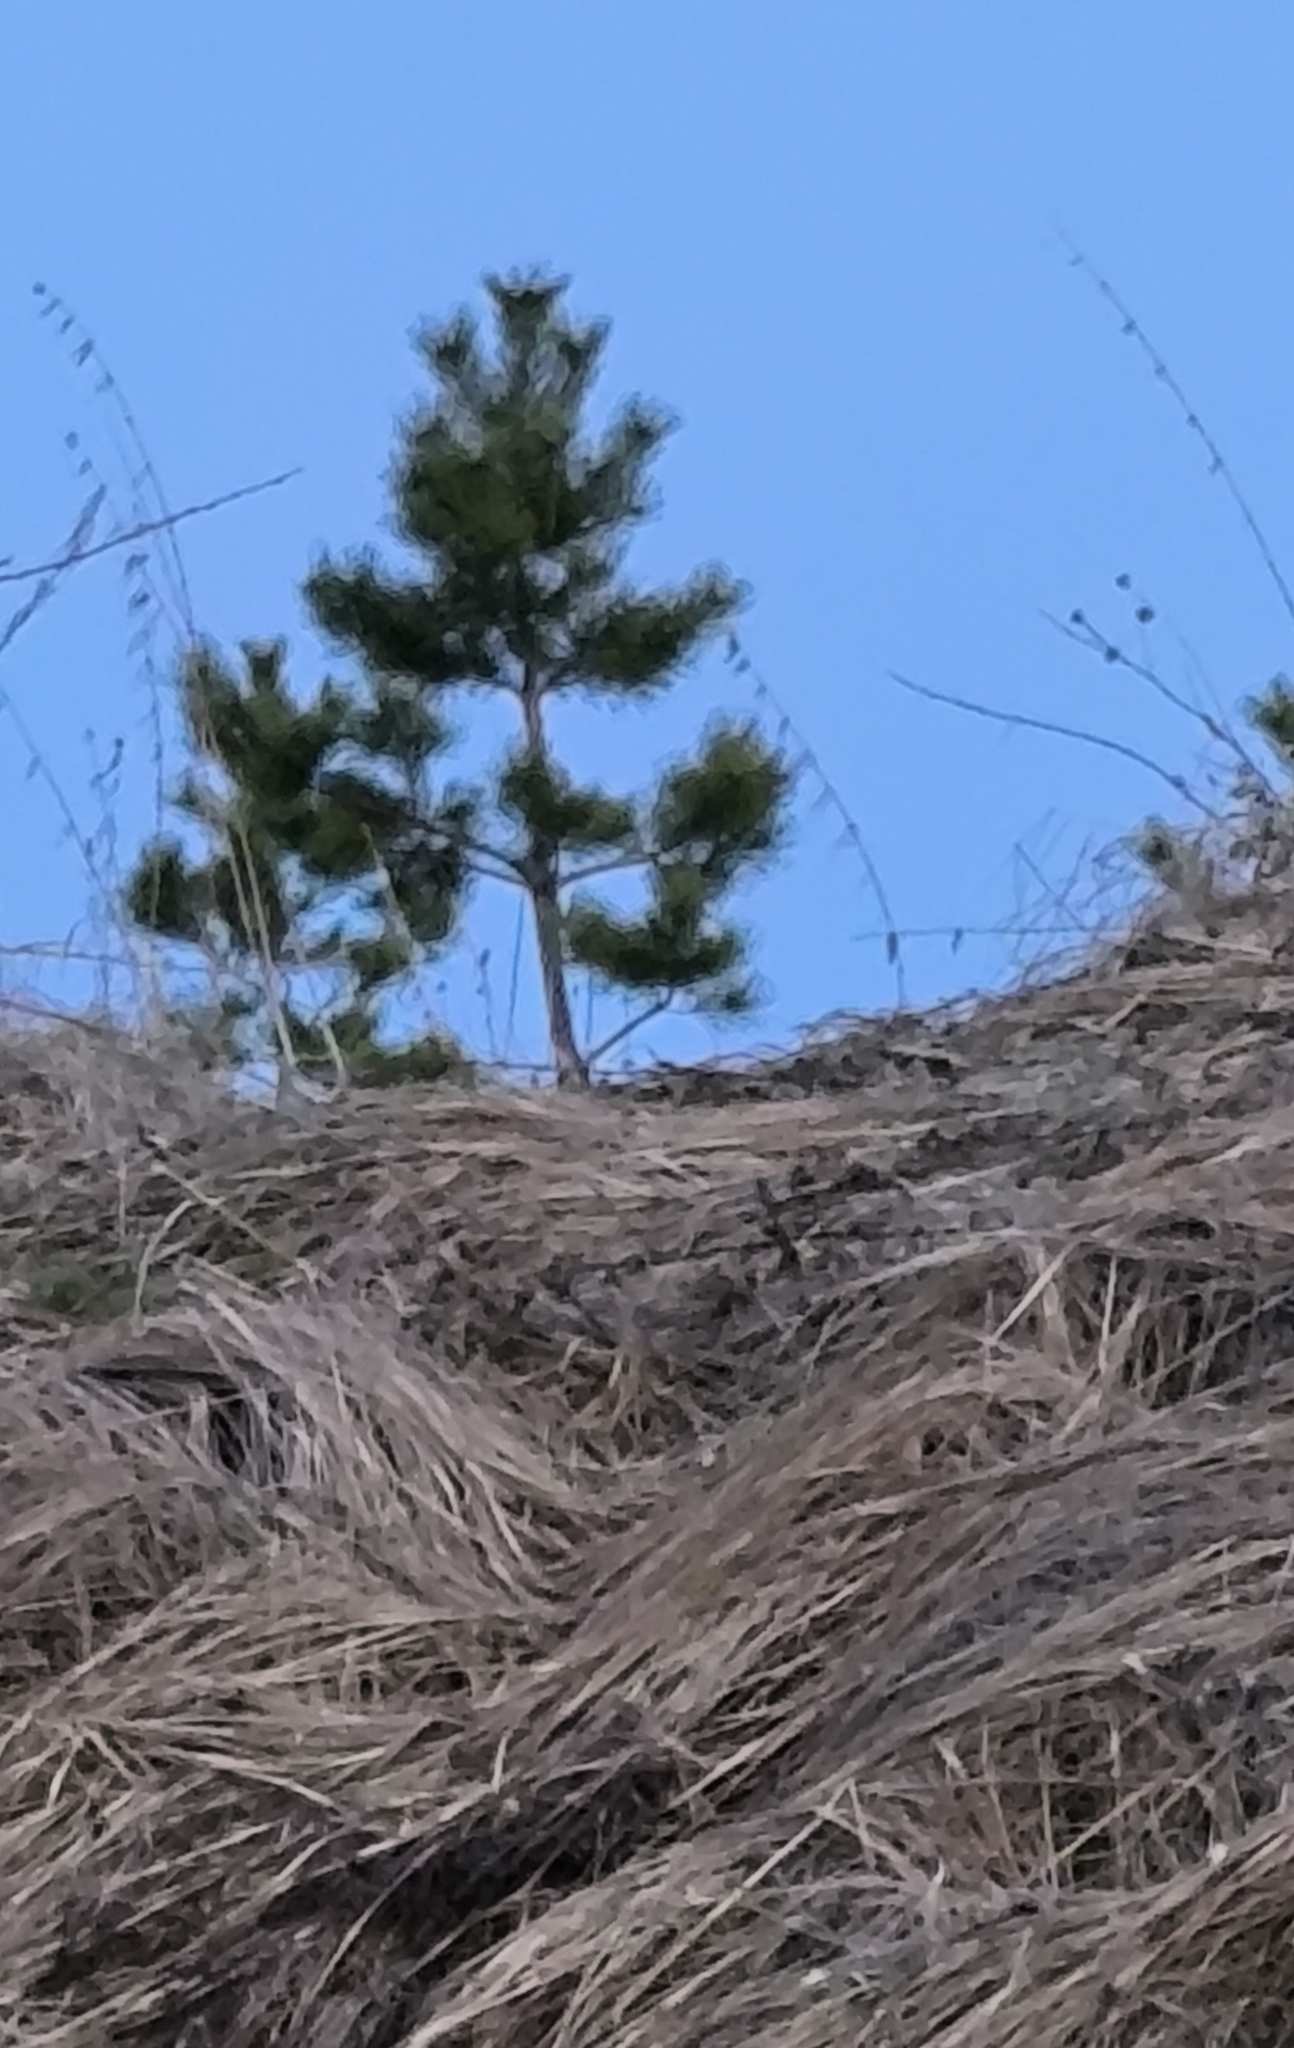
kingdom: Plantae
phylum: Tracheophyta
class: Pinopsida
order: Pinales
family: Pinaceae
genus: Pinus
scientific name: Pinus sylvestris
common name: Scots pine
